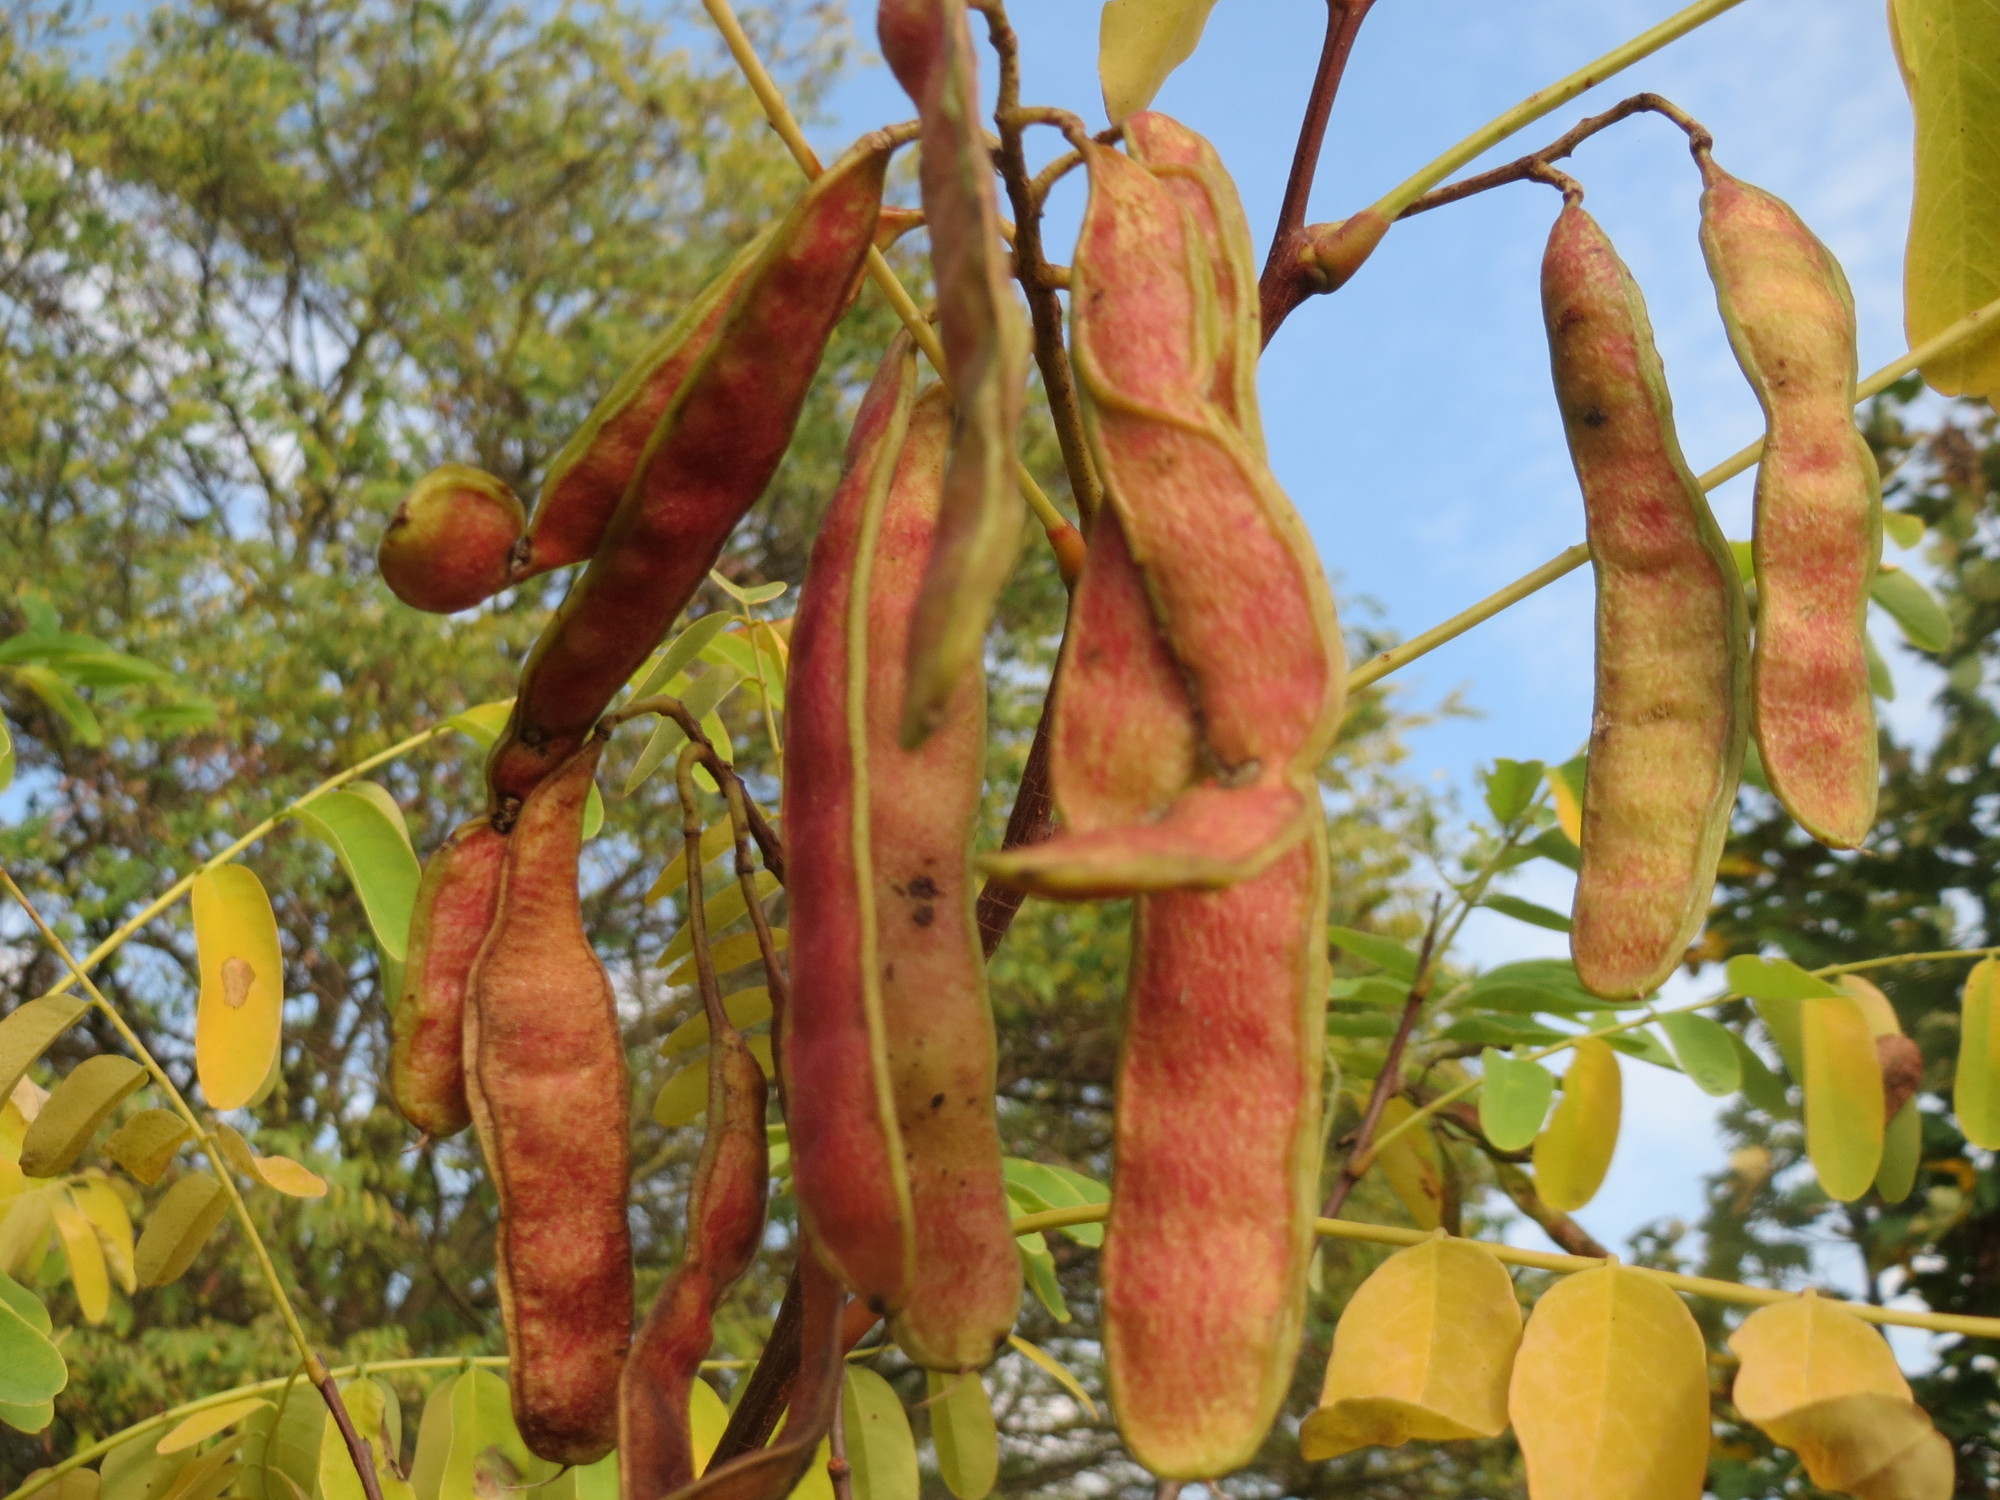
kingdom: Plantae
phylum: Tracheophyta
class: Magnoliopsida
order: Fabales
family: Fabaceae
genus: Robinia
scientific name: Robinia pseudoacacia
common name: Black locust
